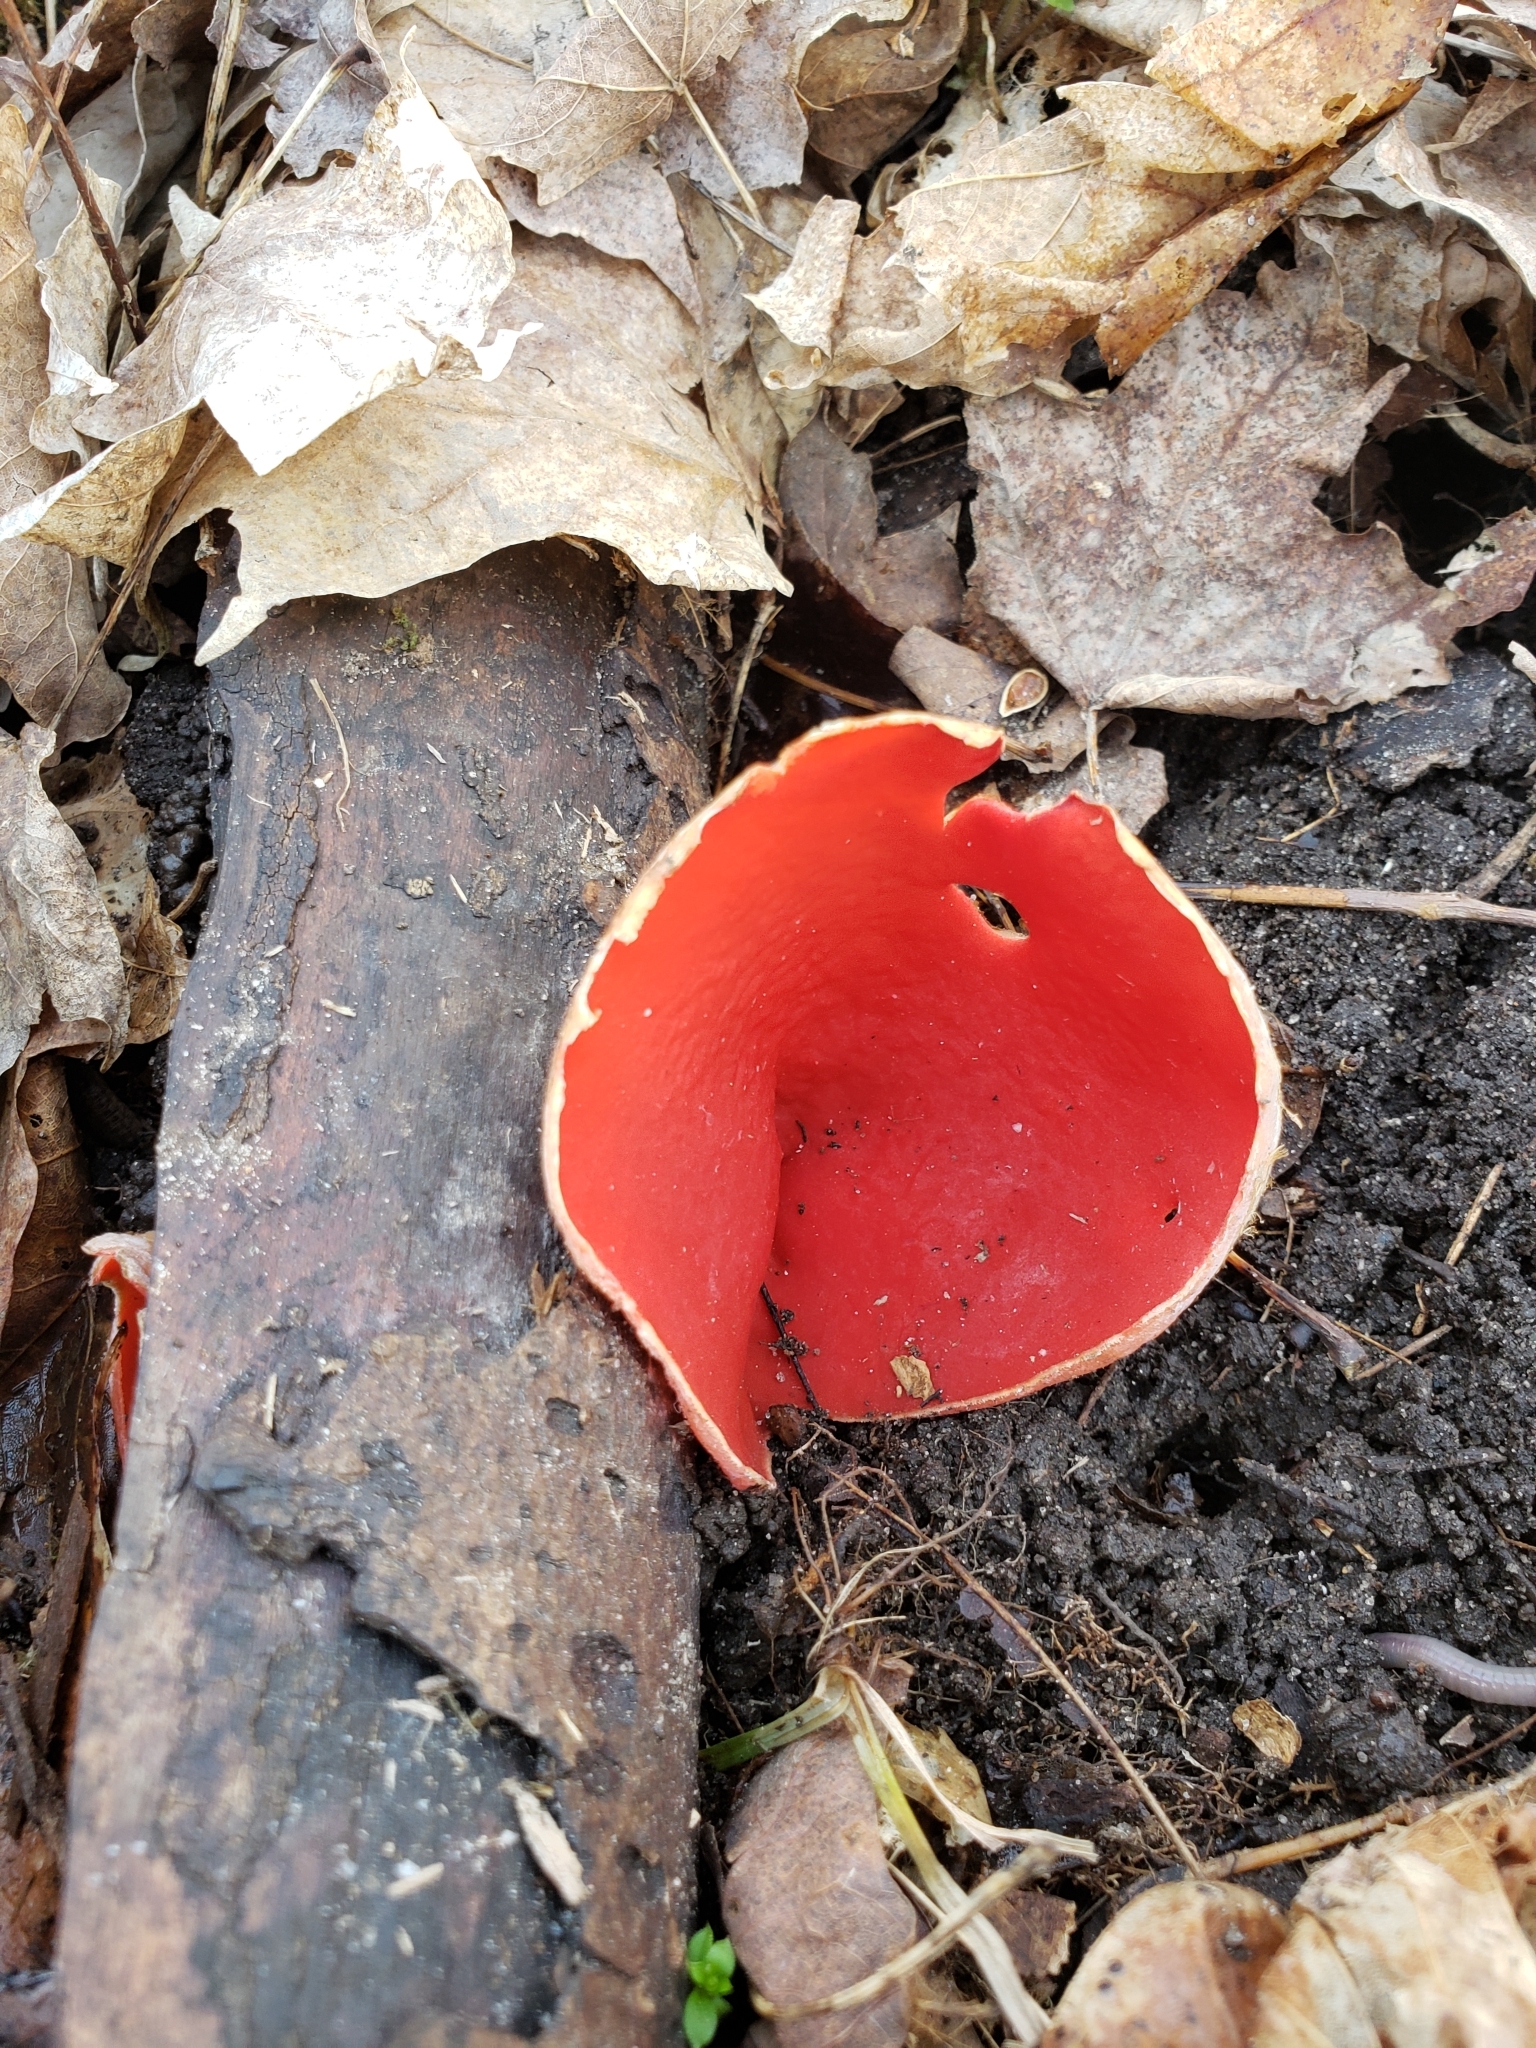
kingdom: Fungi
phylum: Ascomycota
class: Pezizomycetes
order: Pezizales
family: Sarcoscyphaceae
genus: Sarcoscypha
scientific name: Sarcoscypha austriaca
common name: Scarlet elfcup
